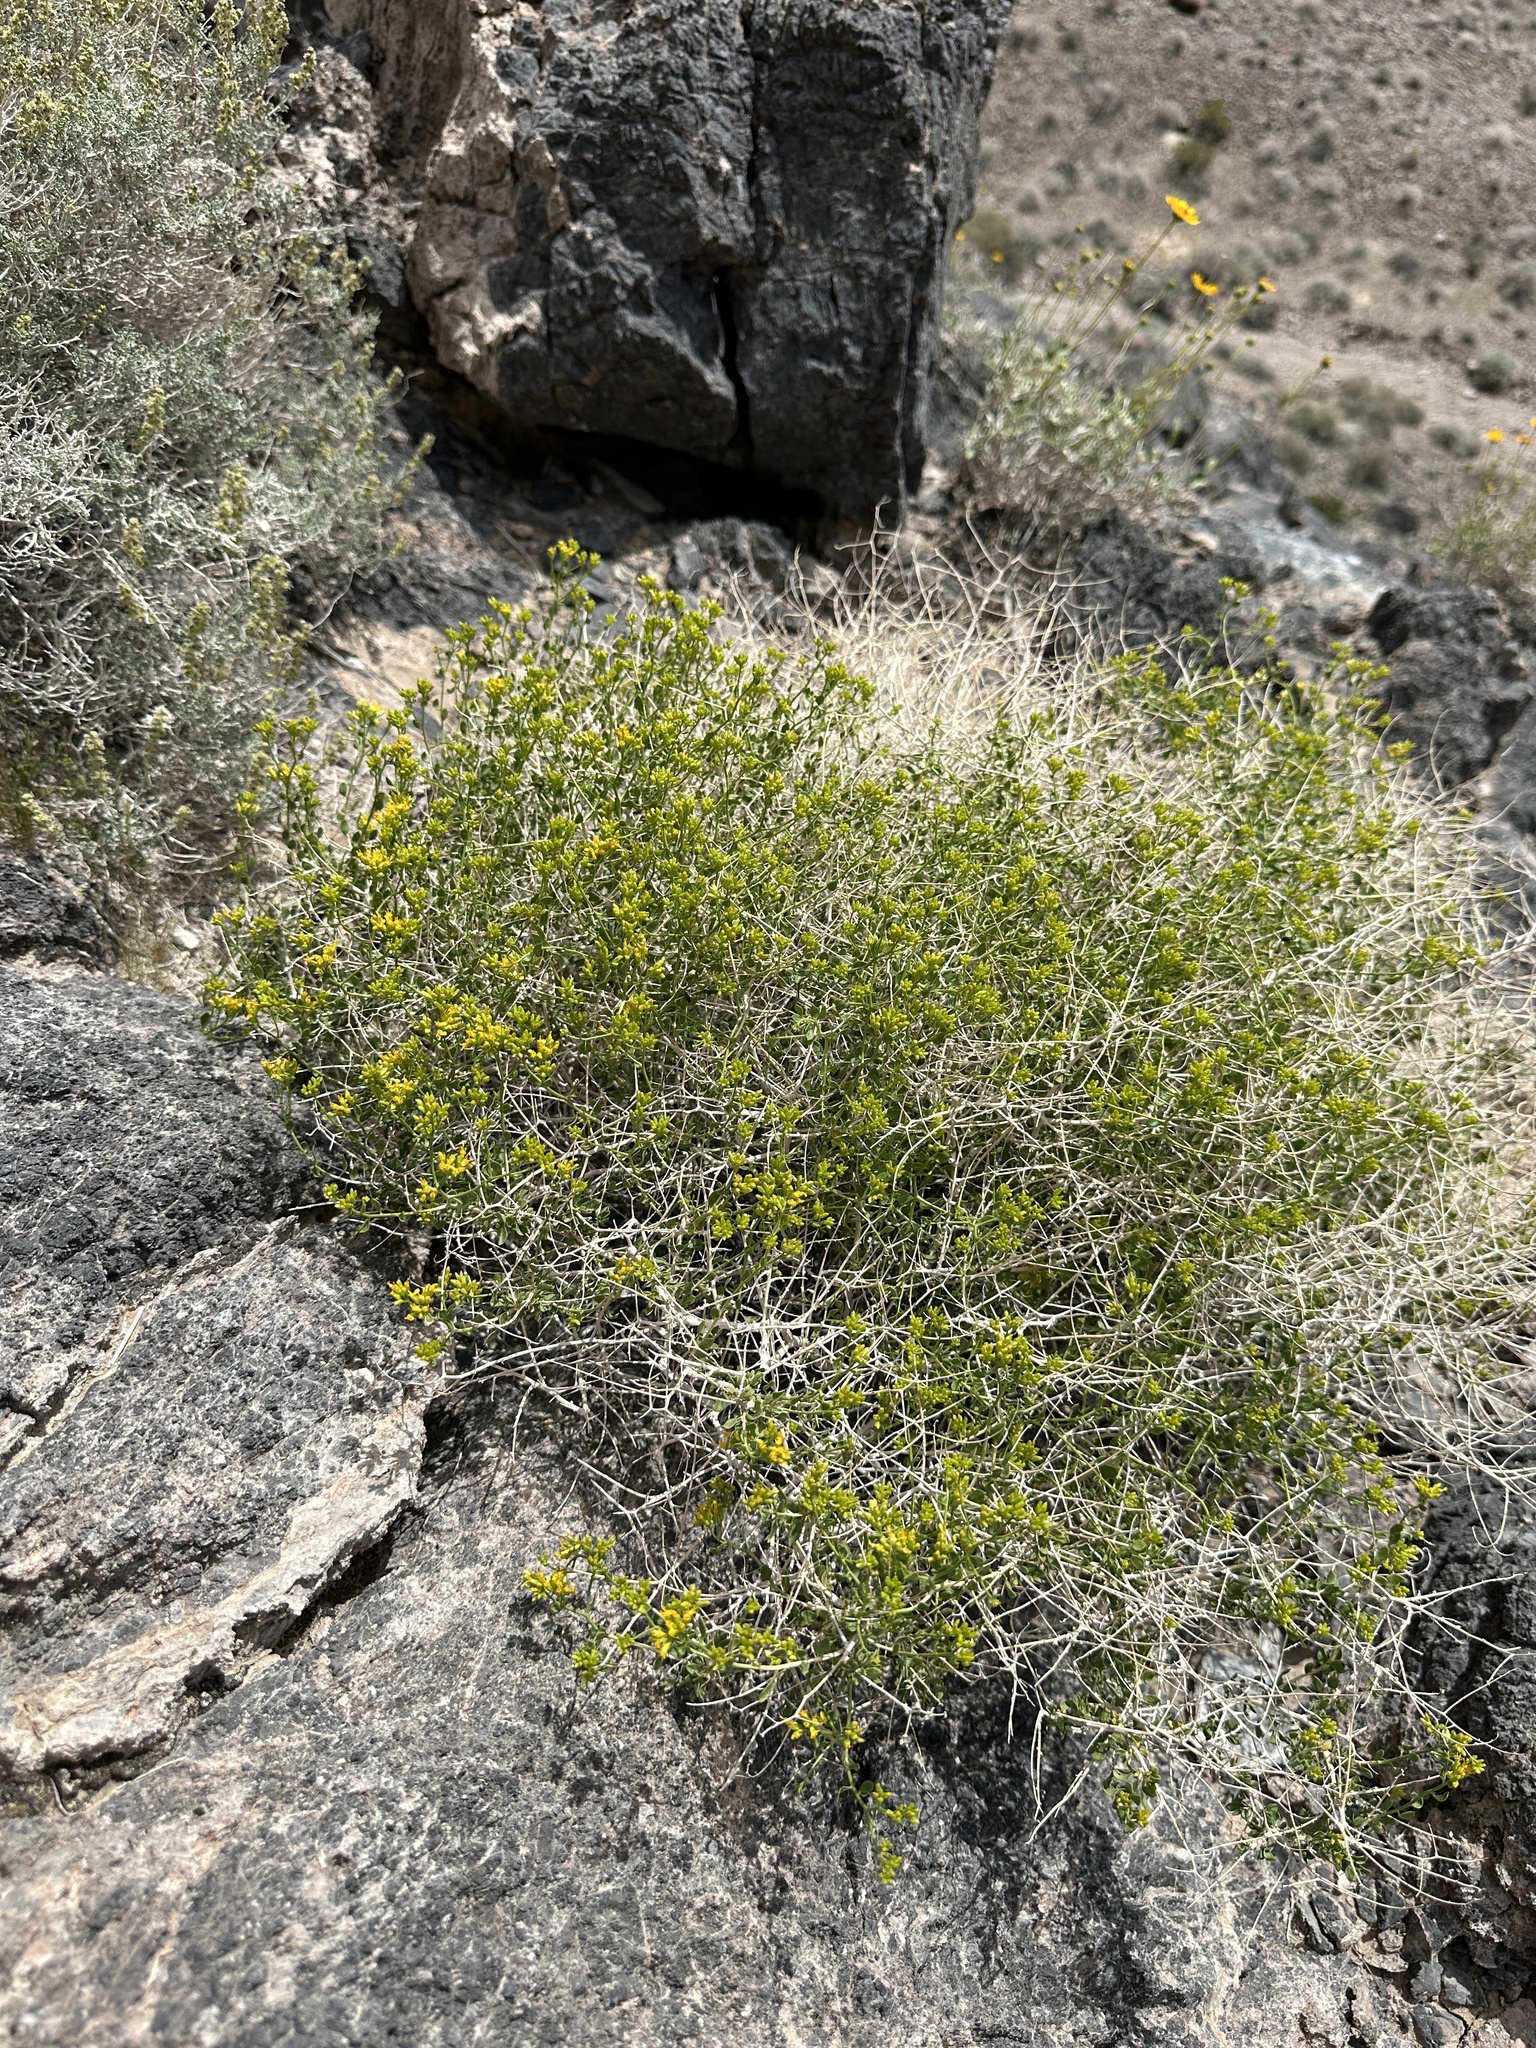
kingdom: Plantae
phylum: Tracheophyta
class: Magnoliopsida
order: Asterales
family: Asteraceae
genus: Amphipappus
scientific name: Amphipappus fremontii
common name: Fremont's chaffbush
